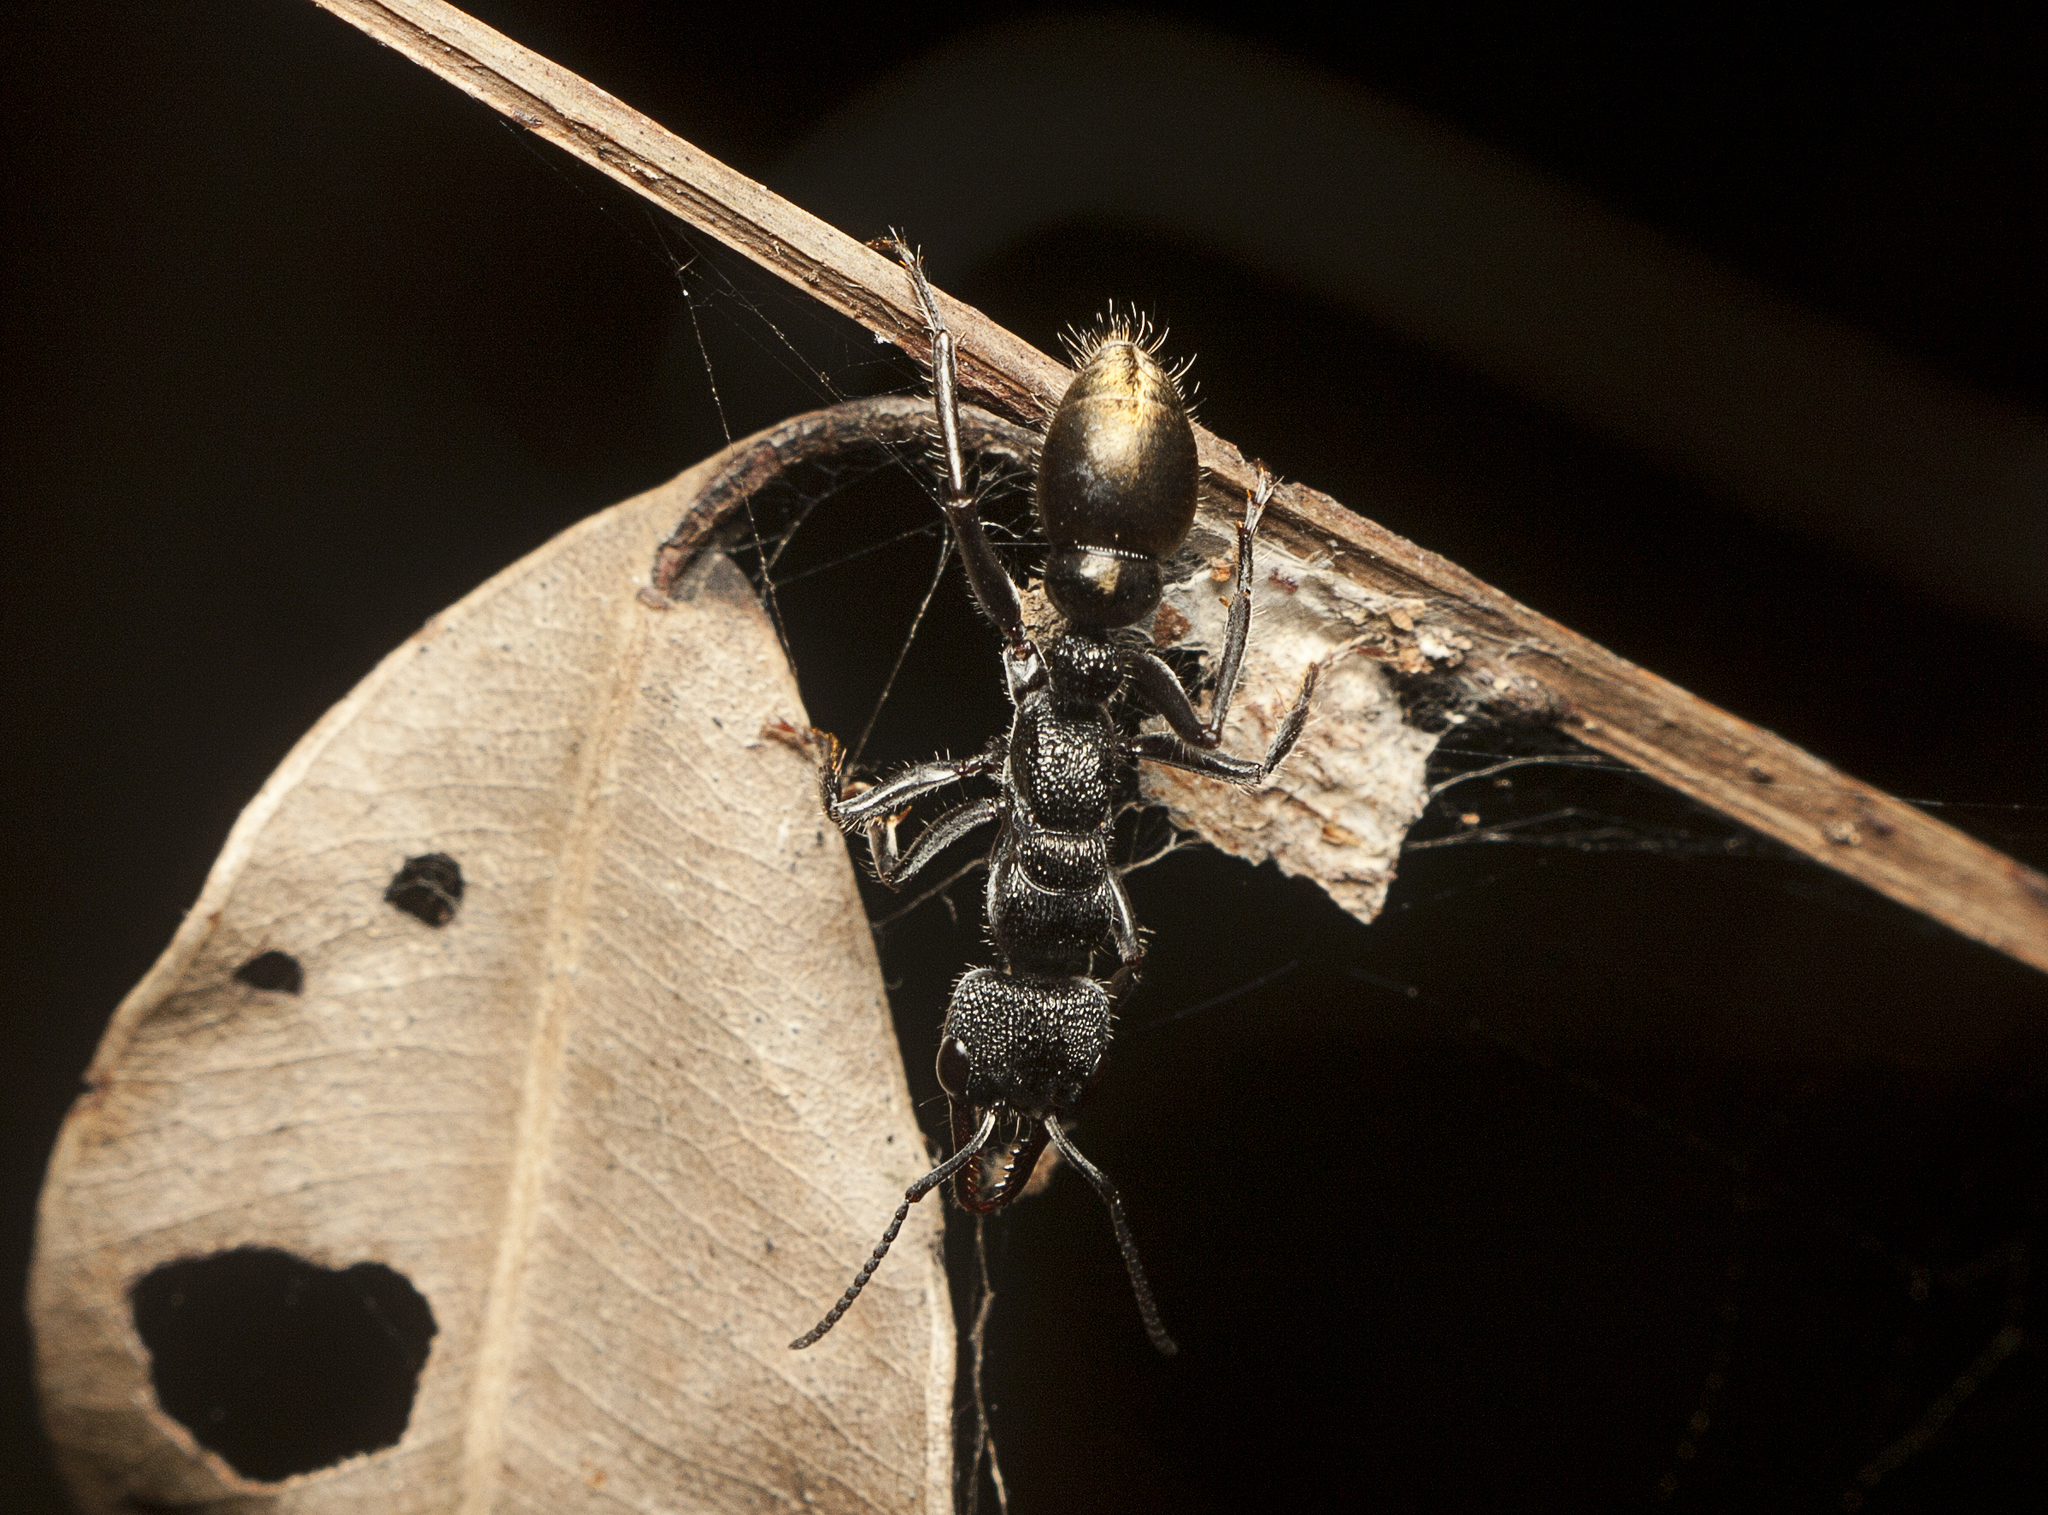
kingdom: Animalia
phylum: Arthropoda
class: Insecta
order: Hymenoptera
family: Formicidae
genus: Myrmecia
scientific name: Myrmecia queenslandica
